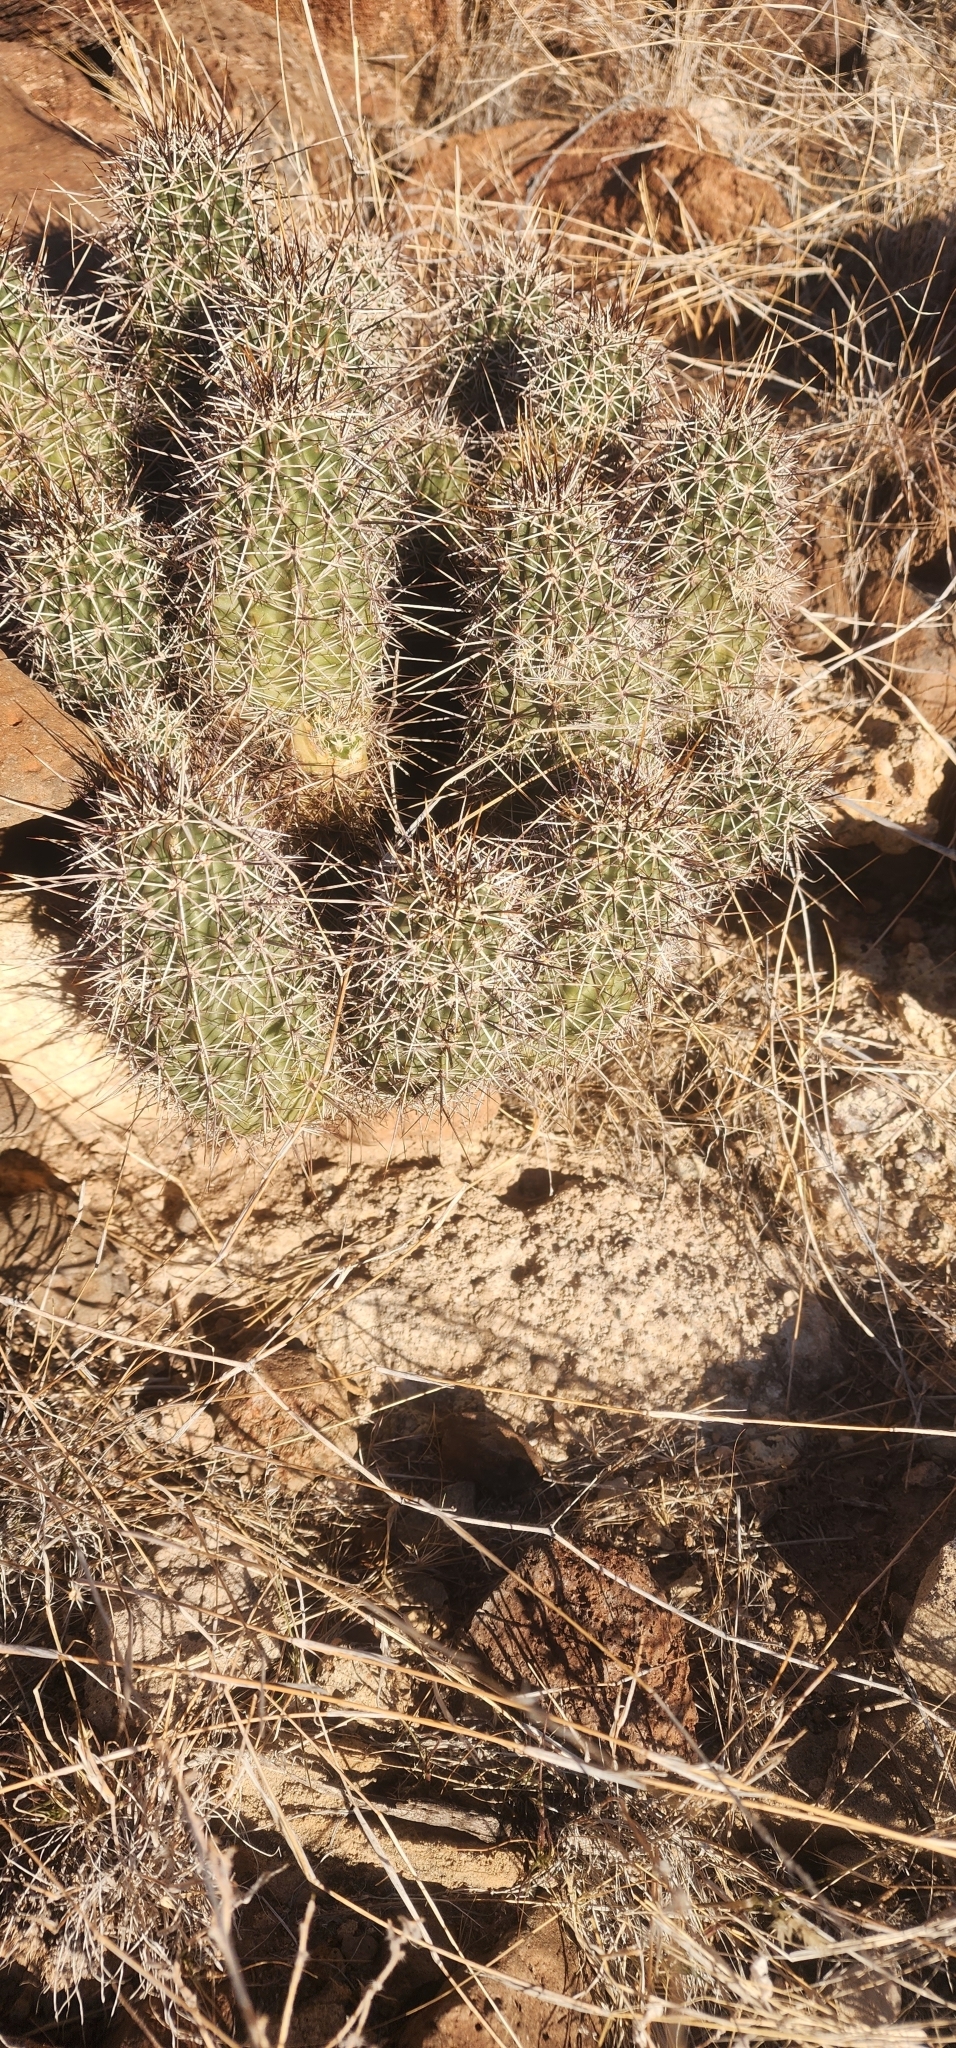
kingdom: Plantae
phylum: Tracheophyta
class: Magnoliopsida
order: Caryophyllales
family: Cactaceae
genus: Echinocereus
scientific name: Echinocereus fasciculatus
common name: Bundle hedgehog
